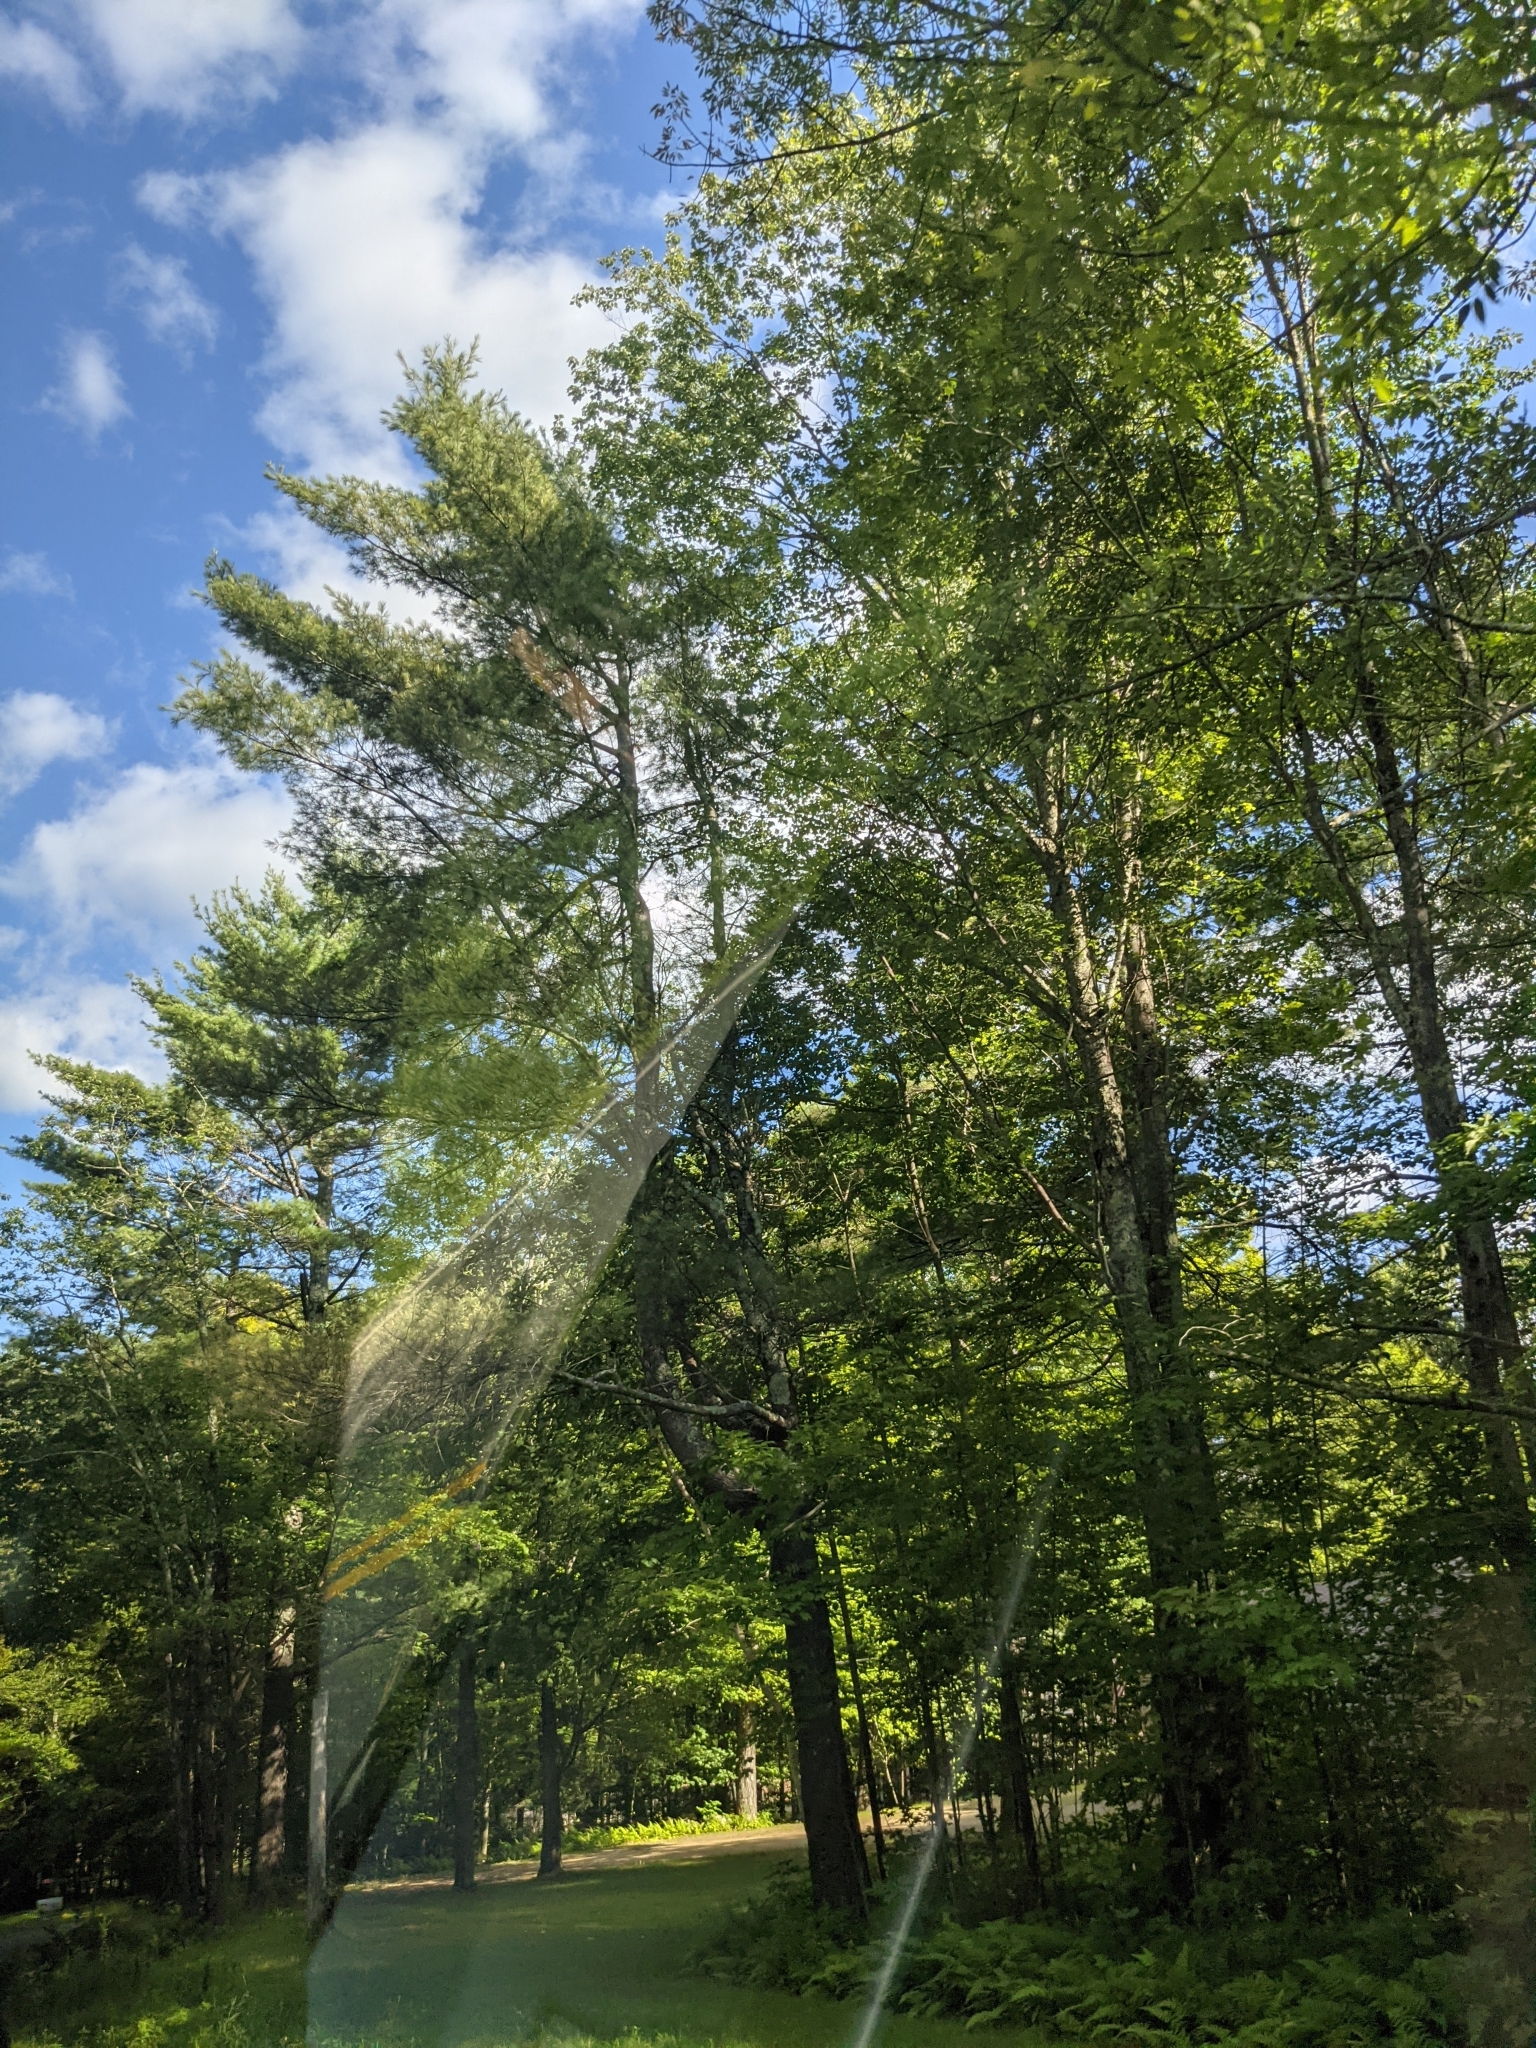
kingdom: Plantae
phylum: Tracheophyta
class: Pinopsida
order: Pinales
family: Pinaceae
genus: Pinus
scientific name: Pinus strobus
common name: Weymouth pine
